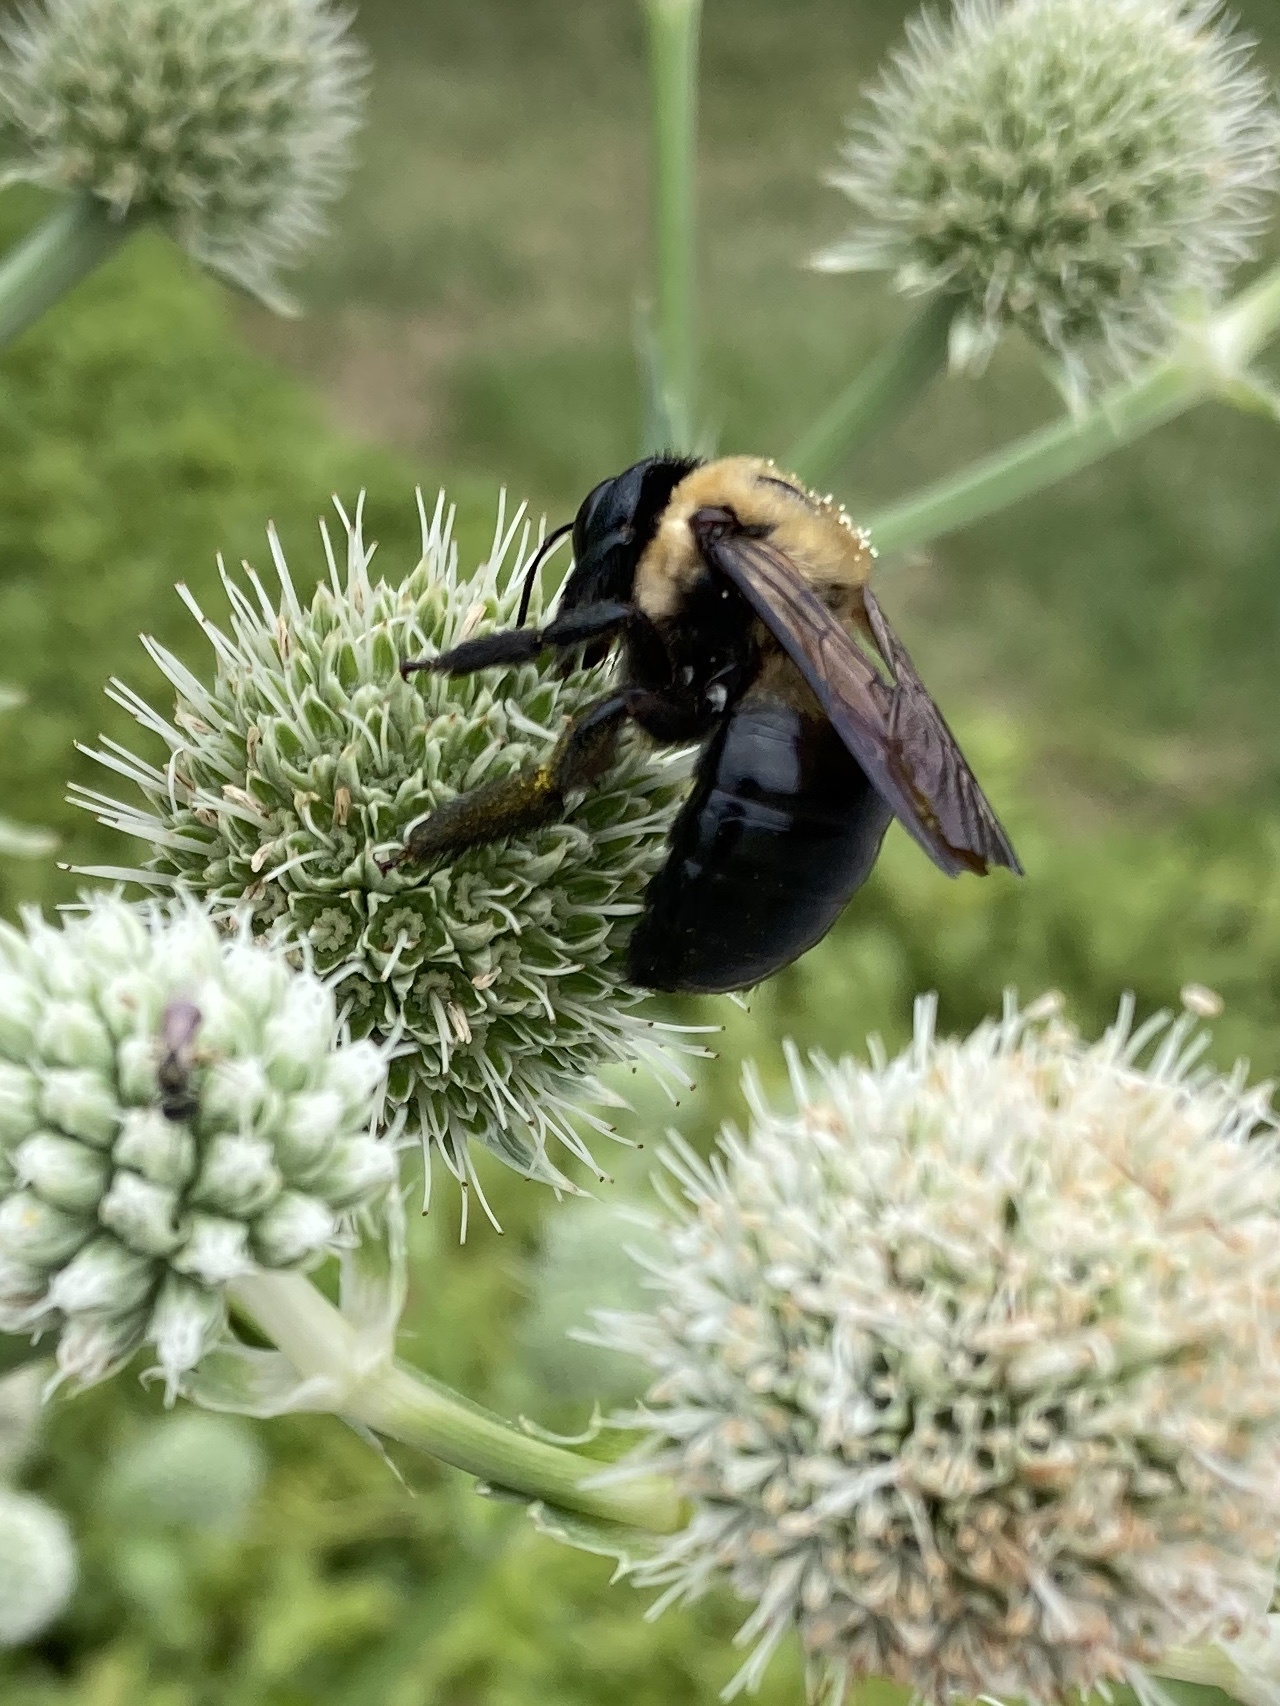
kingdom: Animalia
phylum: Arthropoda
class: Insecta
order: Hymenoptera
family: Apidae
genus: Xylocopa
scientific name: Xylocopa virginica
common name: Carpenter bee
